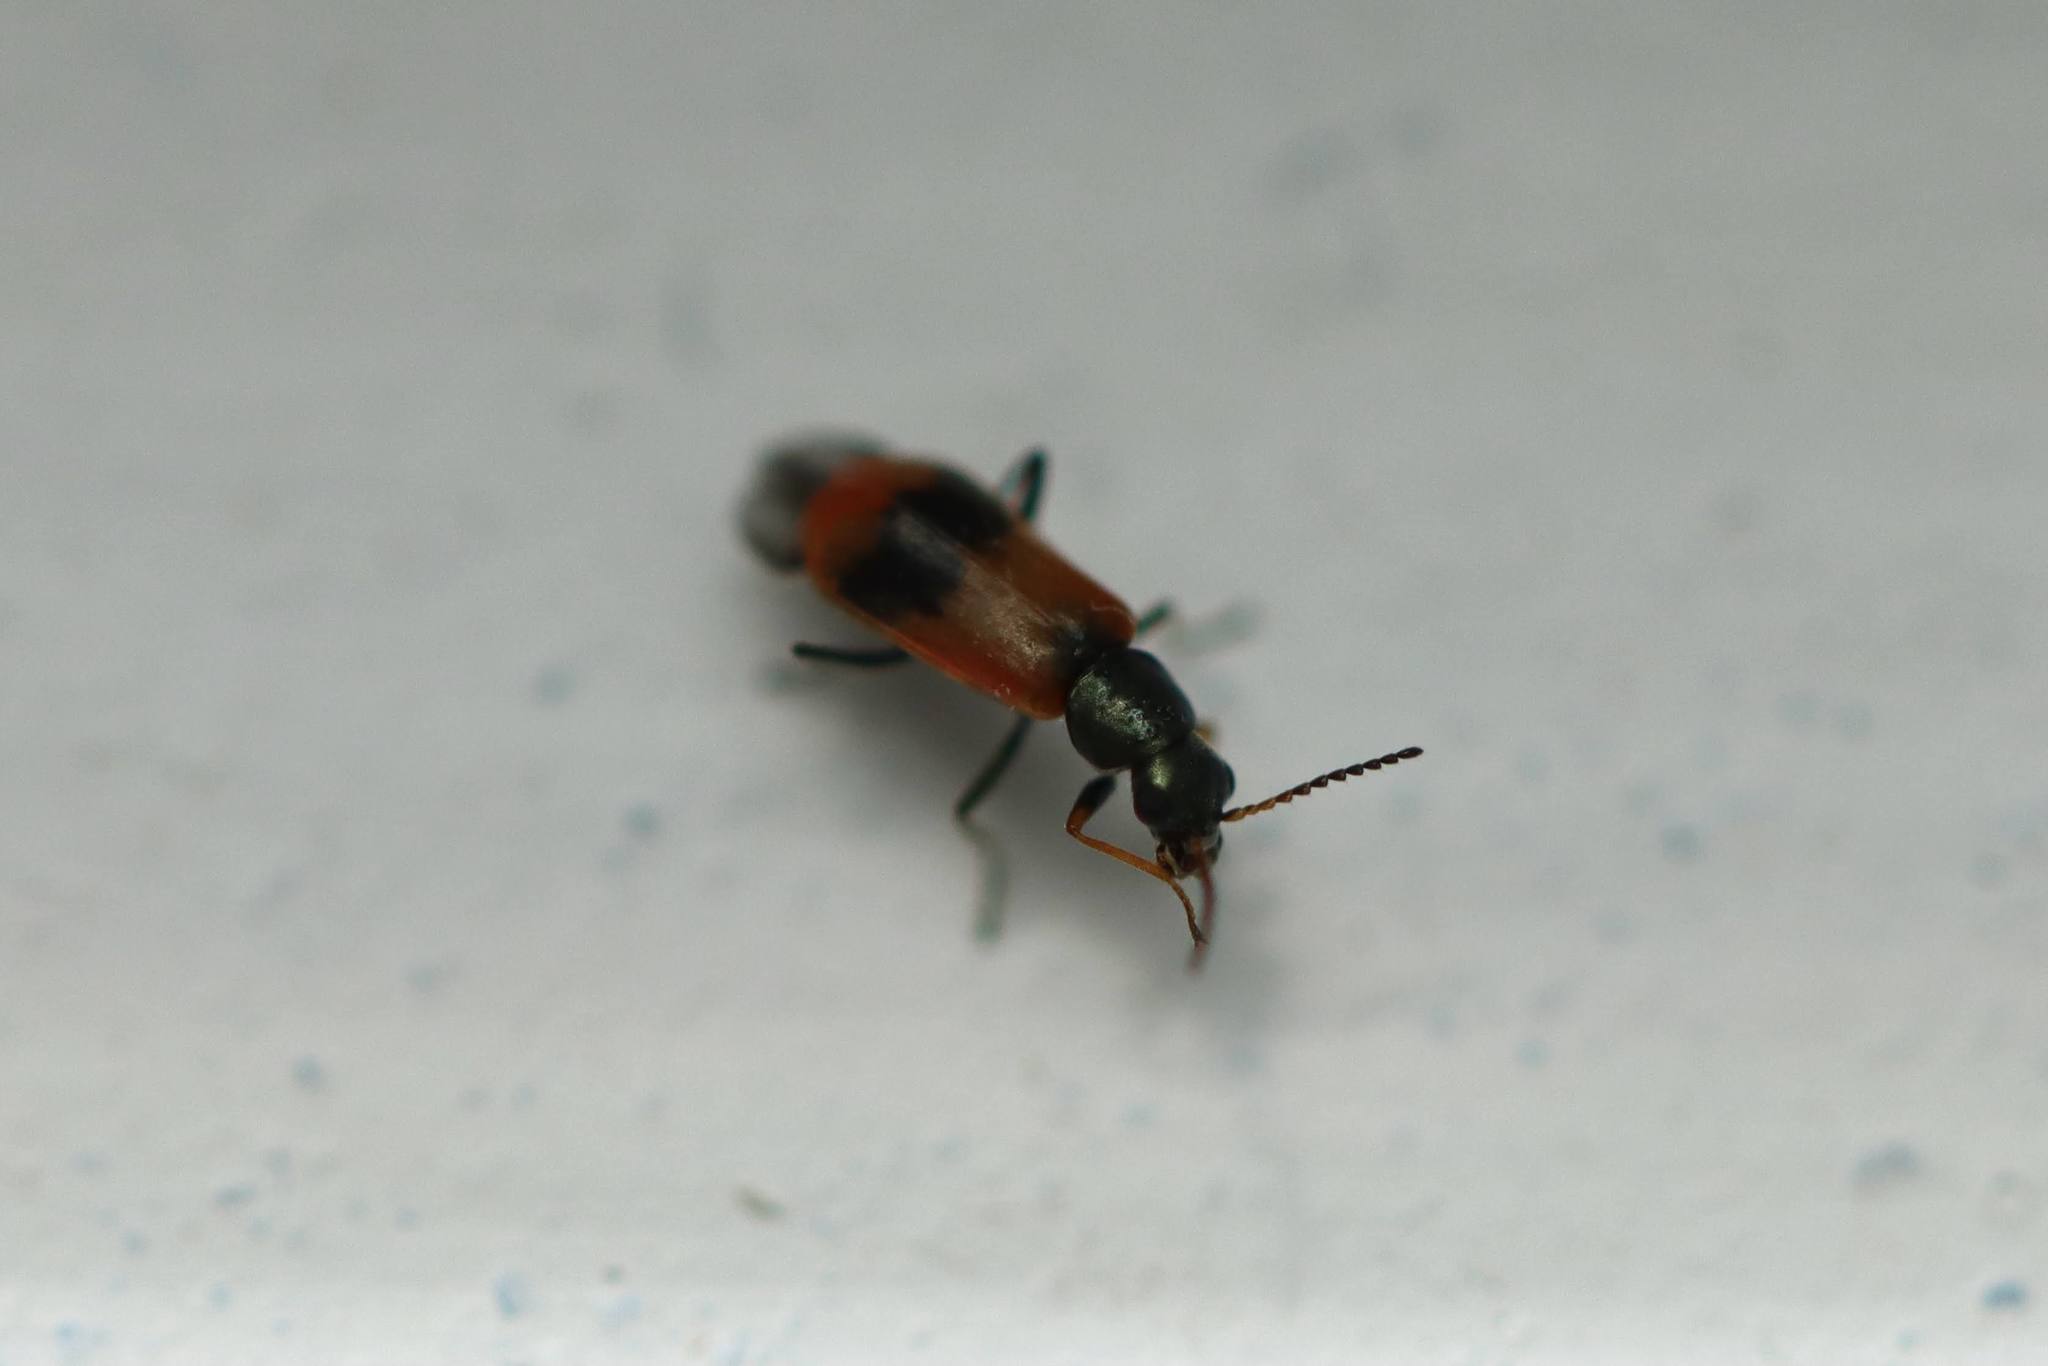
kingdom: Animalia
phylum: Arthropoda
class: Insecta
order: Coleoptera
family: Melyridae
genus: Anthocomus
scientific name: Anthocomus equestris
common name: Black-banded soft-winged flower beetle
